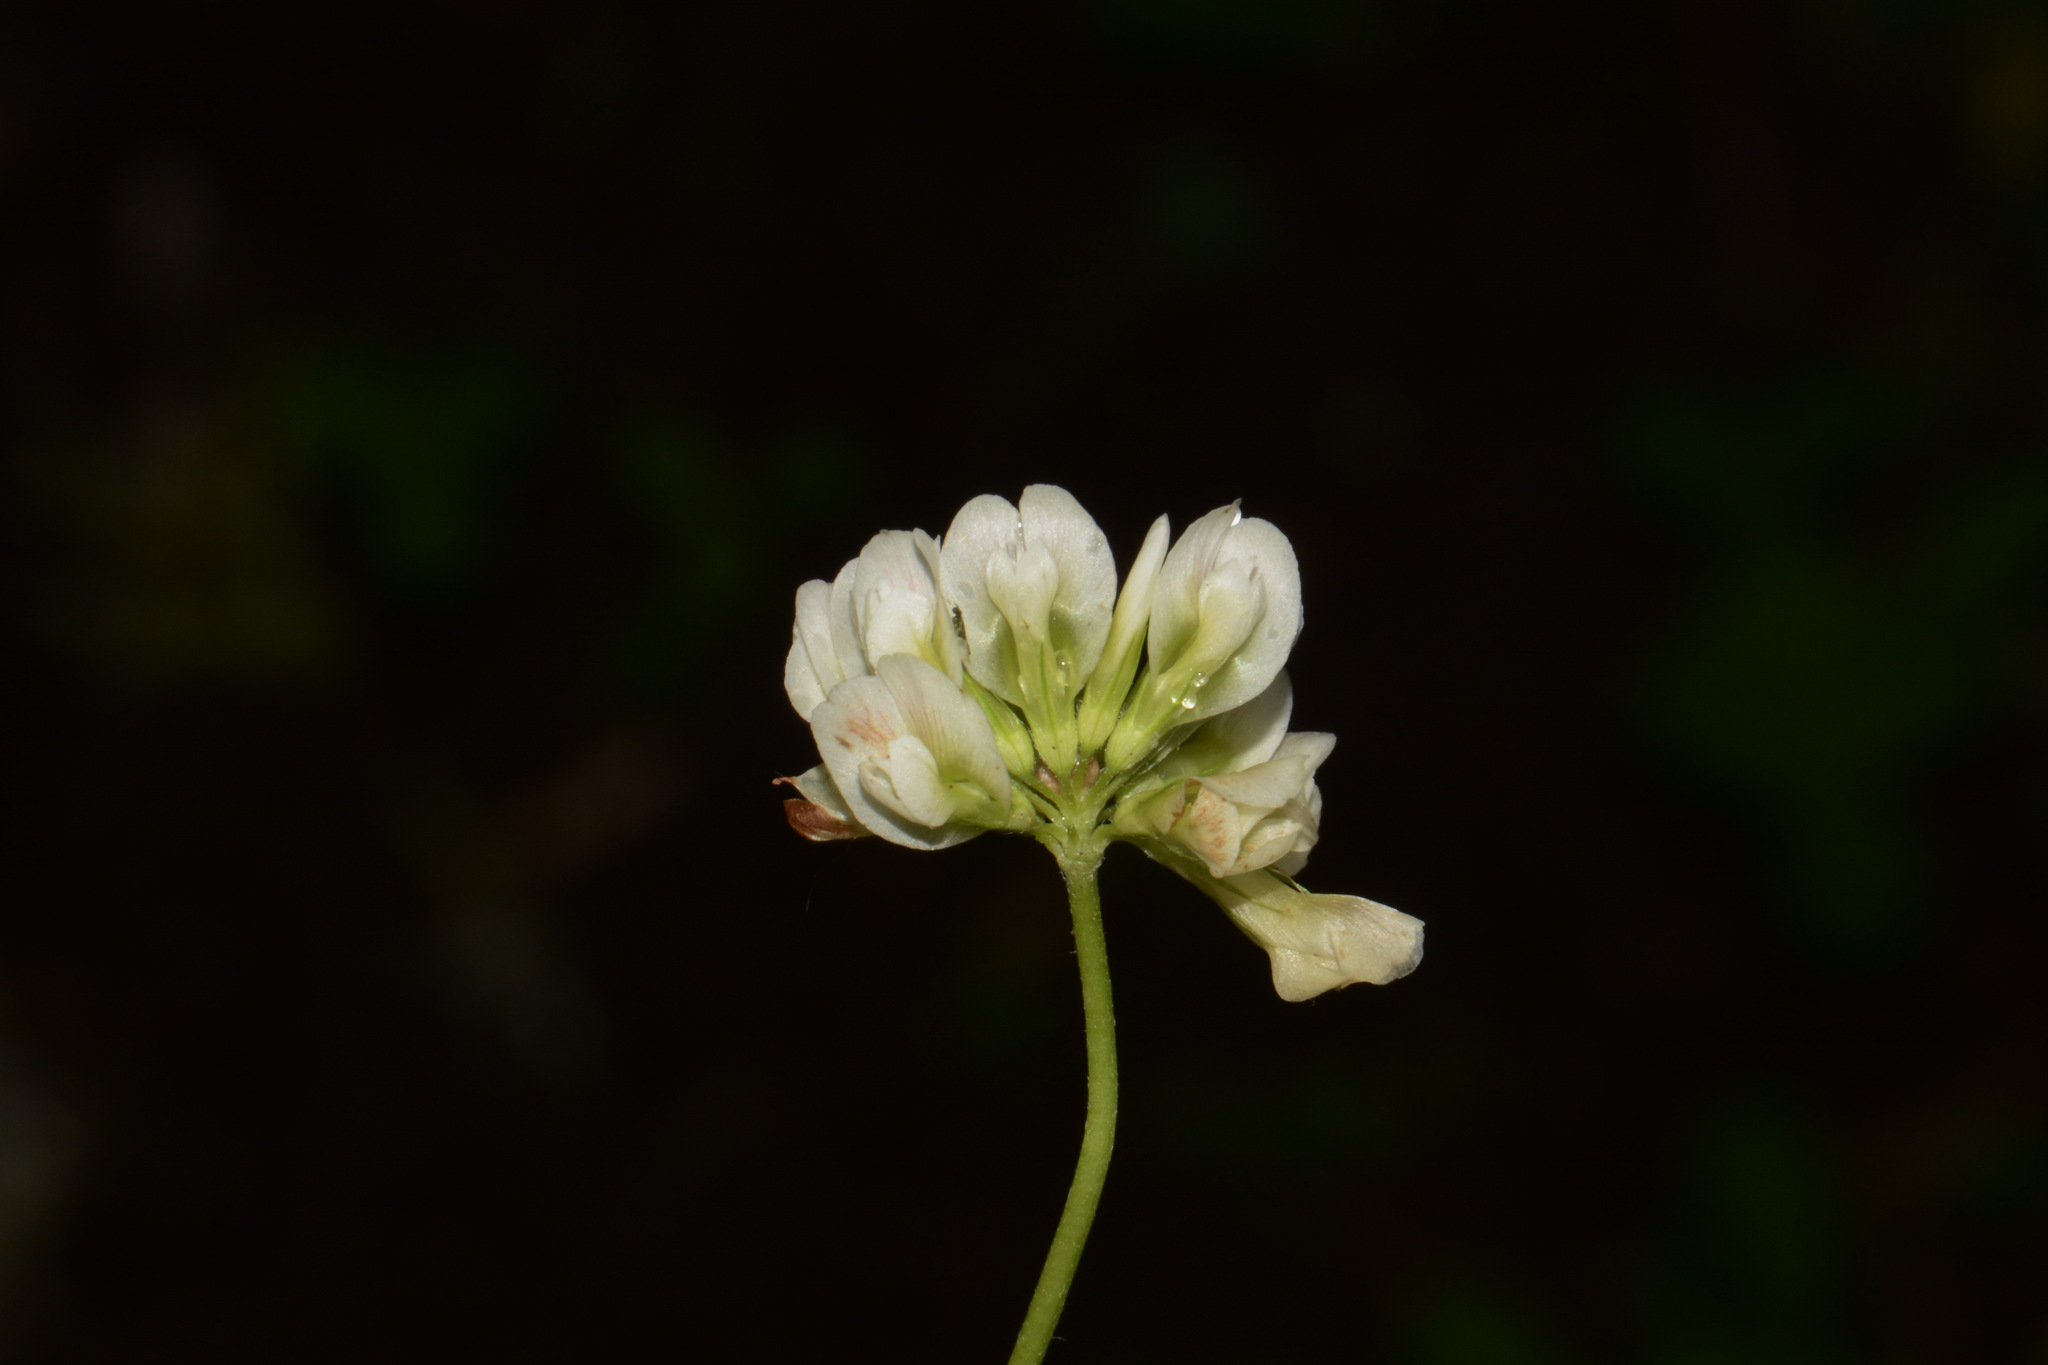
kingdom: Plantae
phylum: Tracheophyta
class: Magnoliopsida
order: Fabales
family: Fabaceae
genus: Trifolium
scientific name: Trifolium calcaricum
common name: Limestone clover
